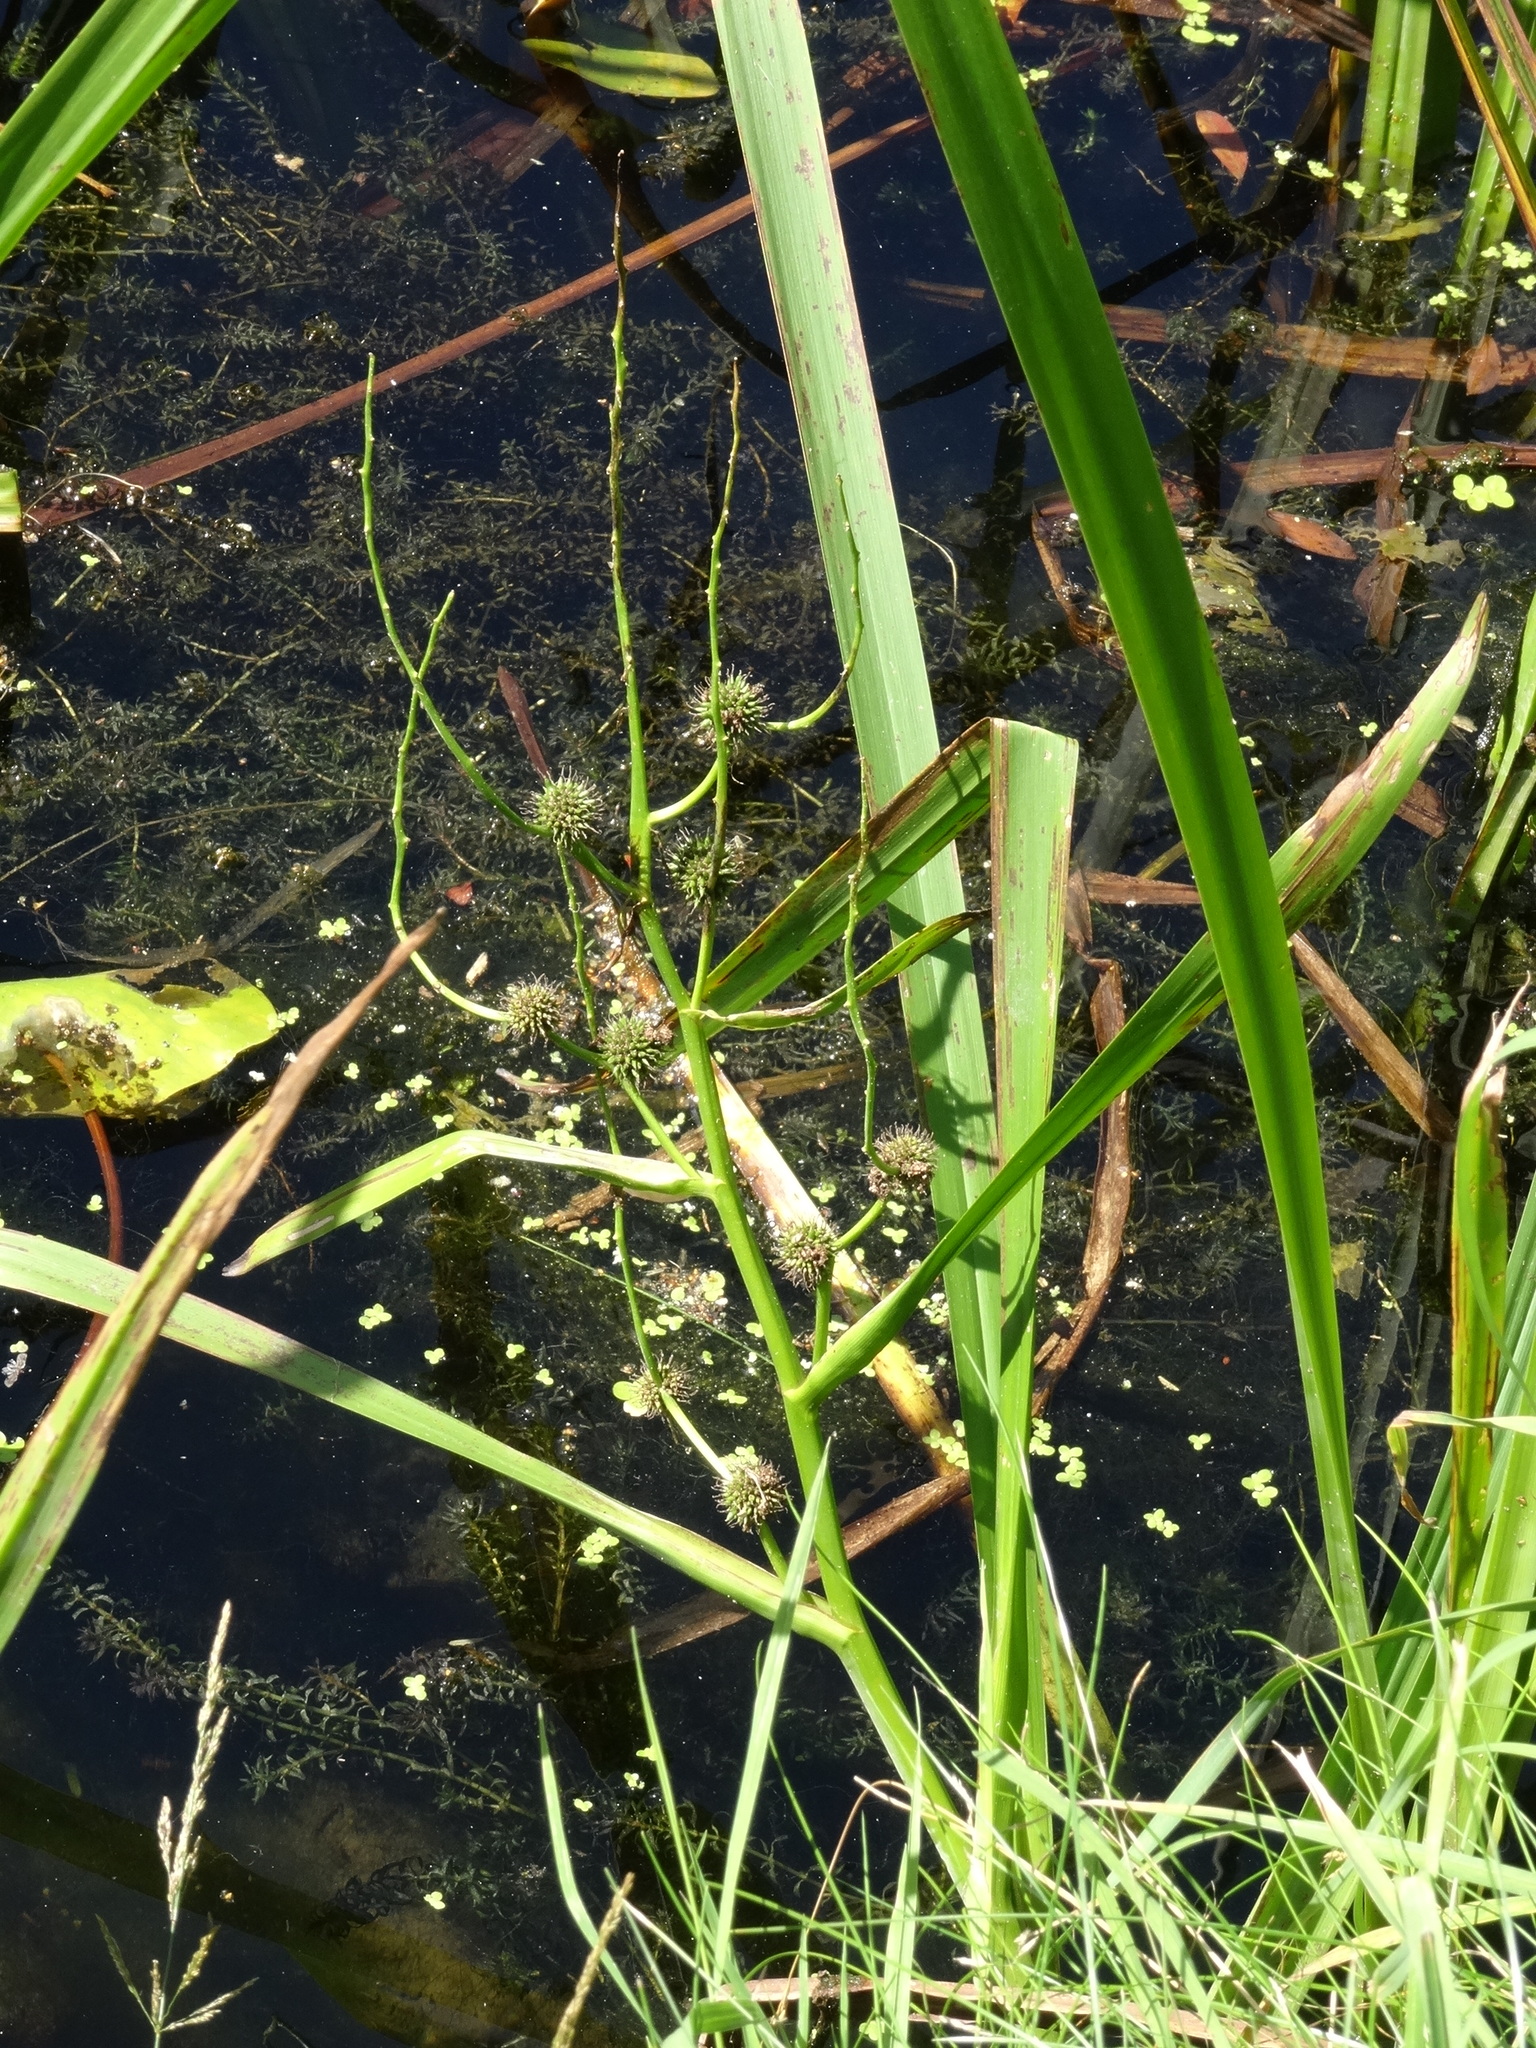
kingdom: Plantae
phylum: Tracheophyta
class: Liliopsida
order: Poales
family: Typhaceae
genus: Sparganium
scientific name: Sparganium erectum
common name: Branched bur-reed
